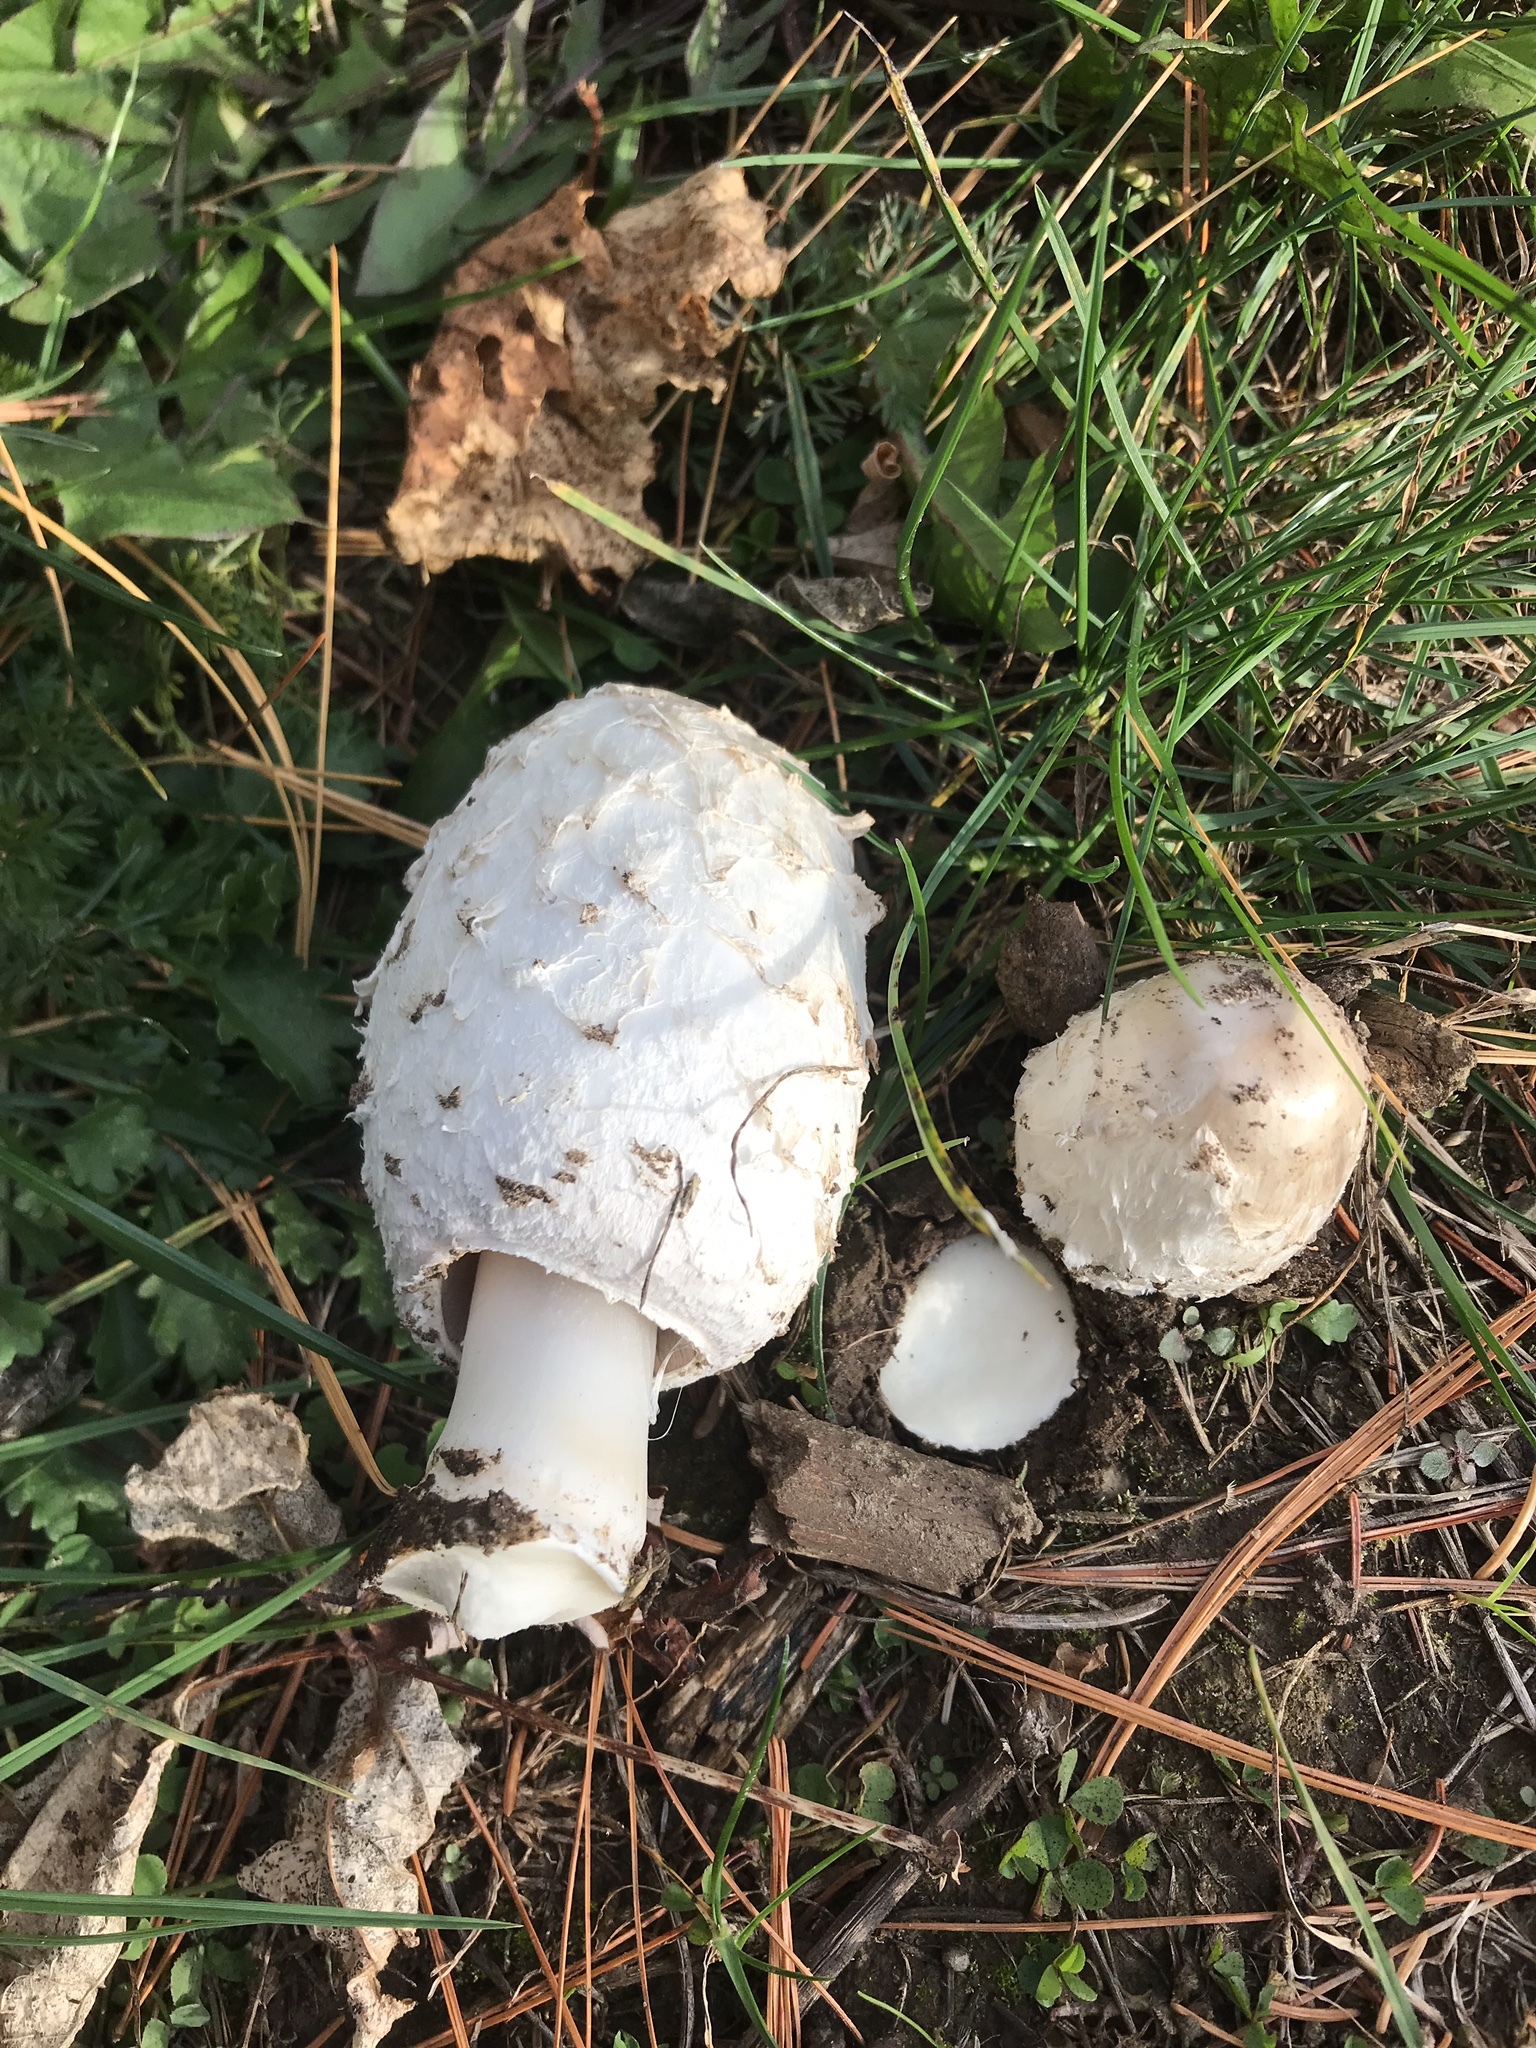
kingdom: Fungi
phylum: Basidiomycota
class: Agaricomycetes
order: Agaricales
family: Agaricaceae
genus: Coprinus
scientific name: Coprinus comatus
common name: Lawyer's wig
